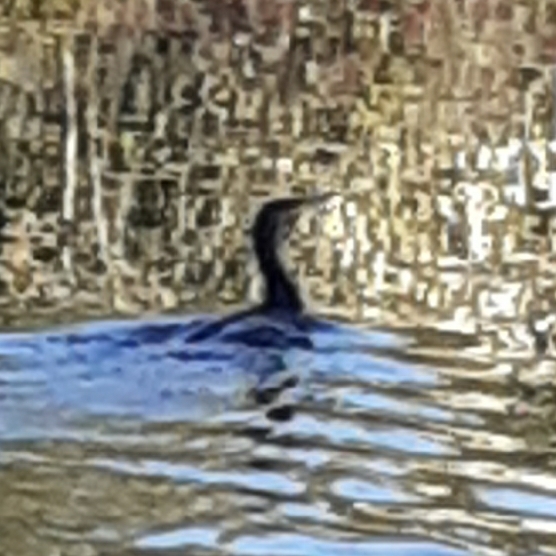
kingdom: Animalia
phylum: Chordata
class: Aves
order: Suliformes
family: Phalacrocoracidae
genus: Phalacrocorax
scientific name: Phalacrocorax carbo
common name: Great cormorant
